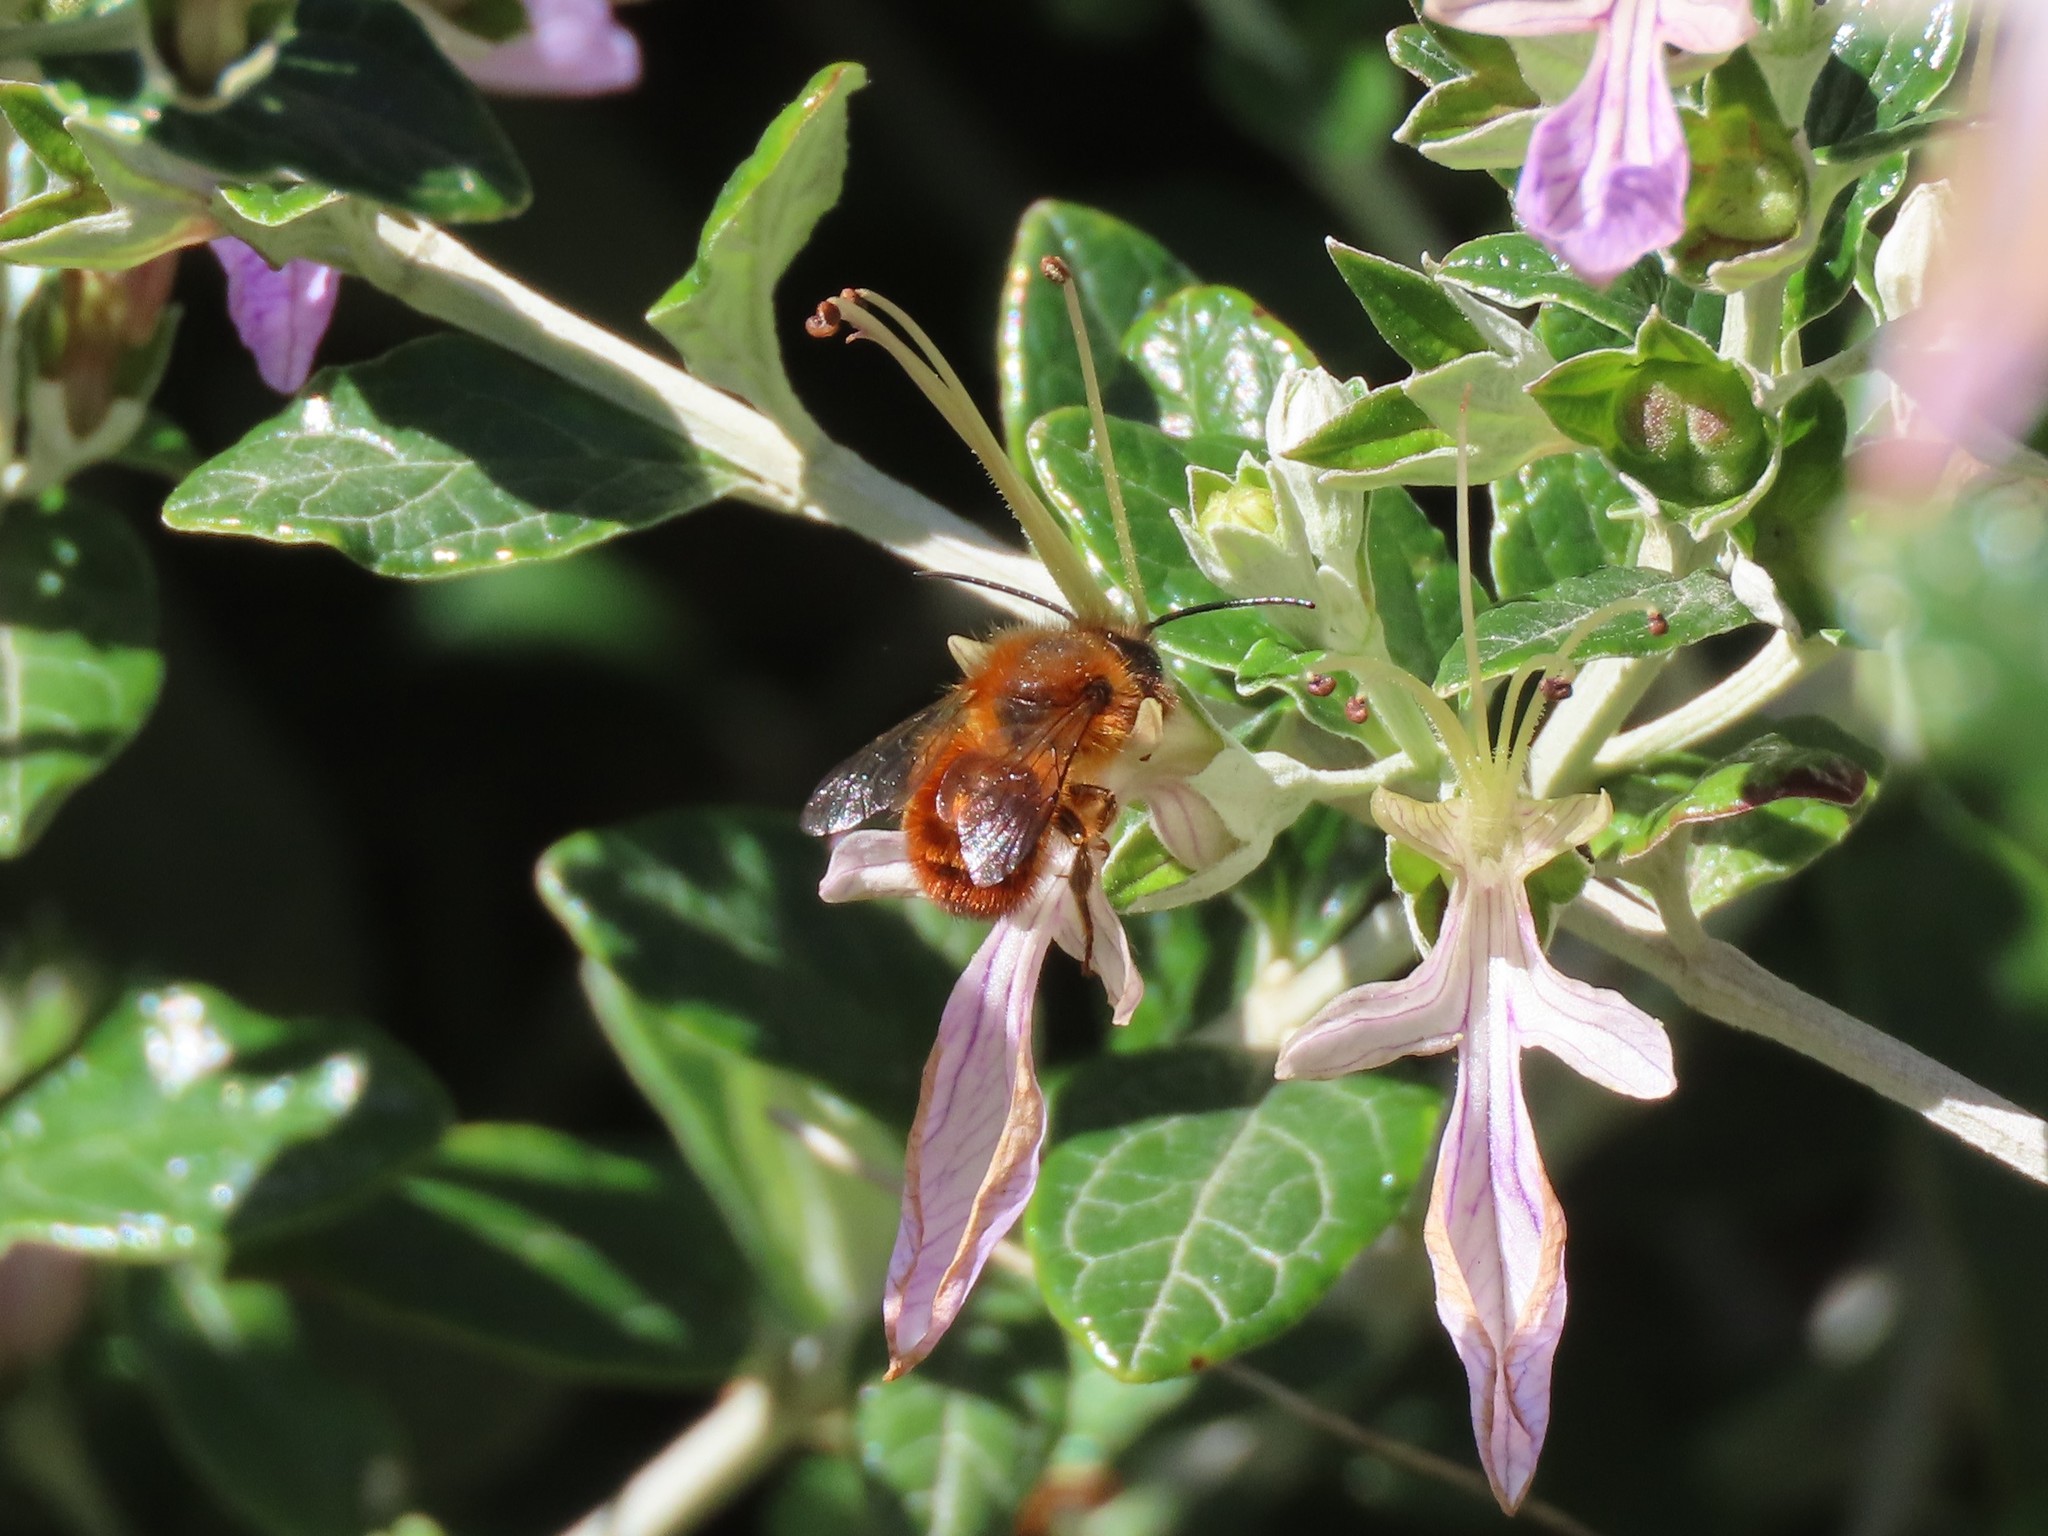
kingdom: Animalia
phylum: Arthropoda
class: Insecta
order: Hymenoptera
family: Megachilidae
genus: Osmia
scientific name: Osmia tricornis
